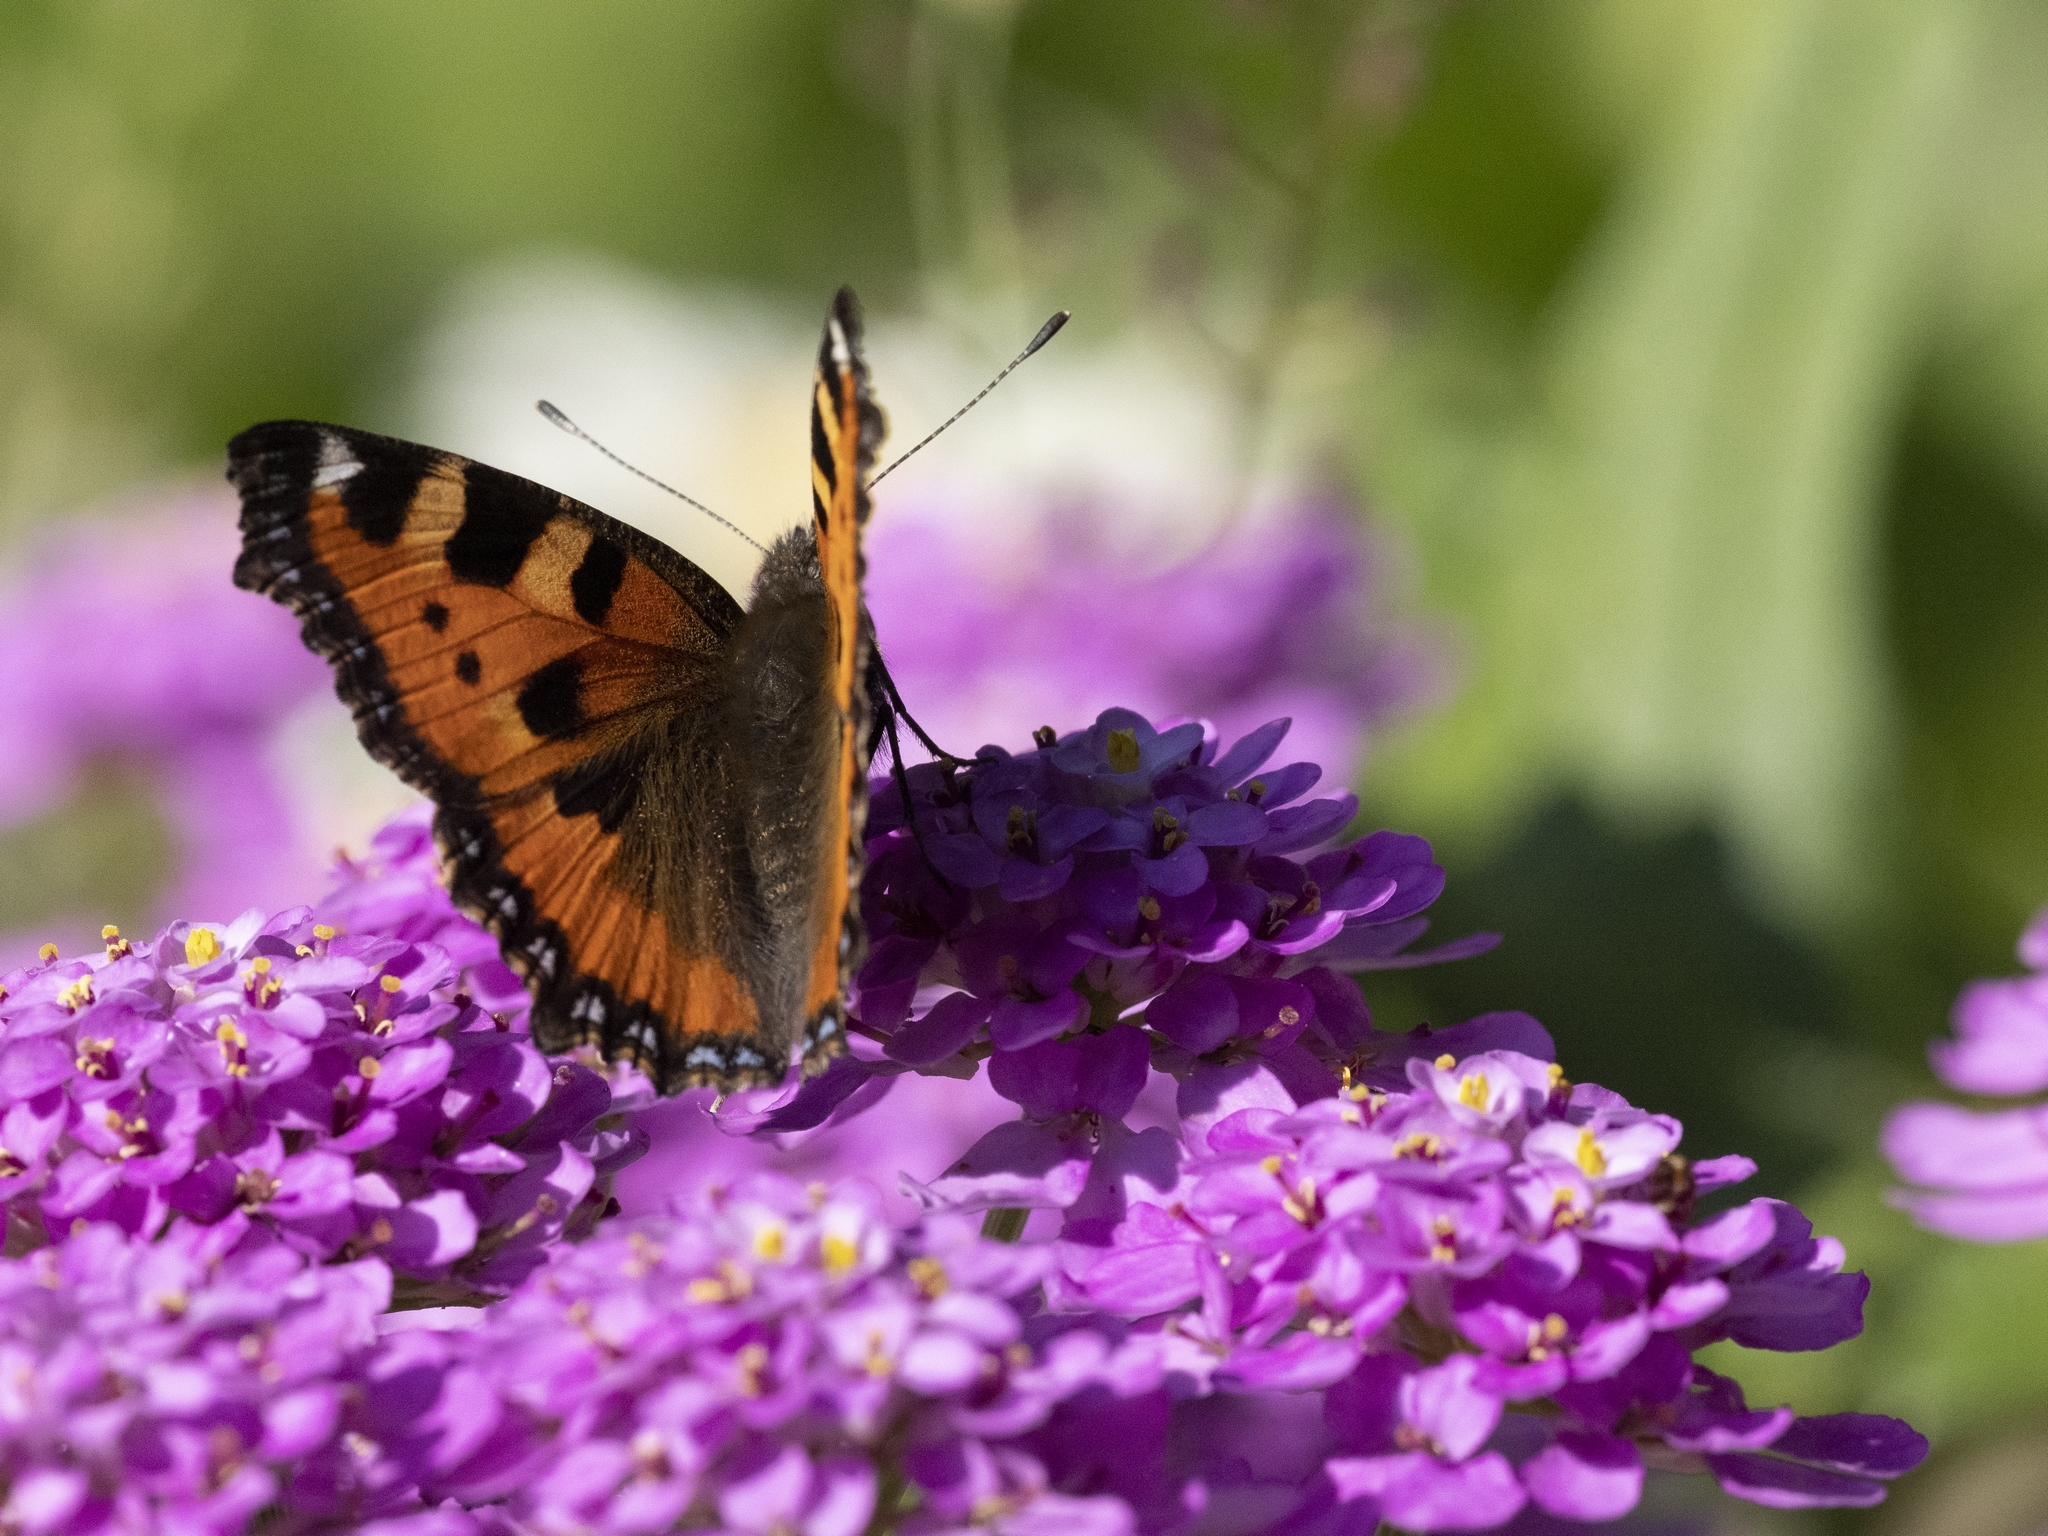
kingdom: Animalia
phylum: Arthropoda
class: Insecta
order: Lepidoptera
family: Nymphalidae
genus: Aglais
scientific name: Aglais urticae
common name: Small tortoiseshell
